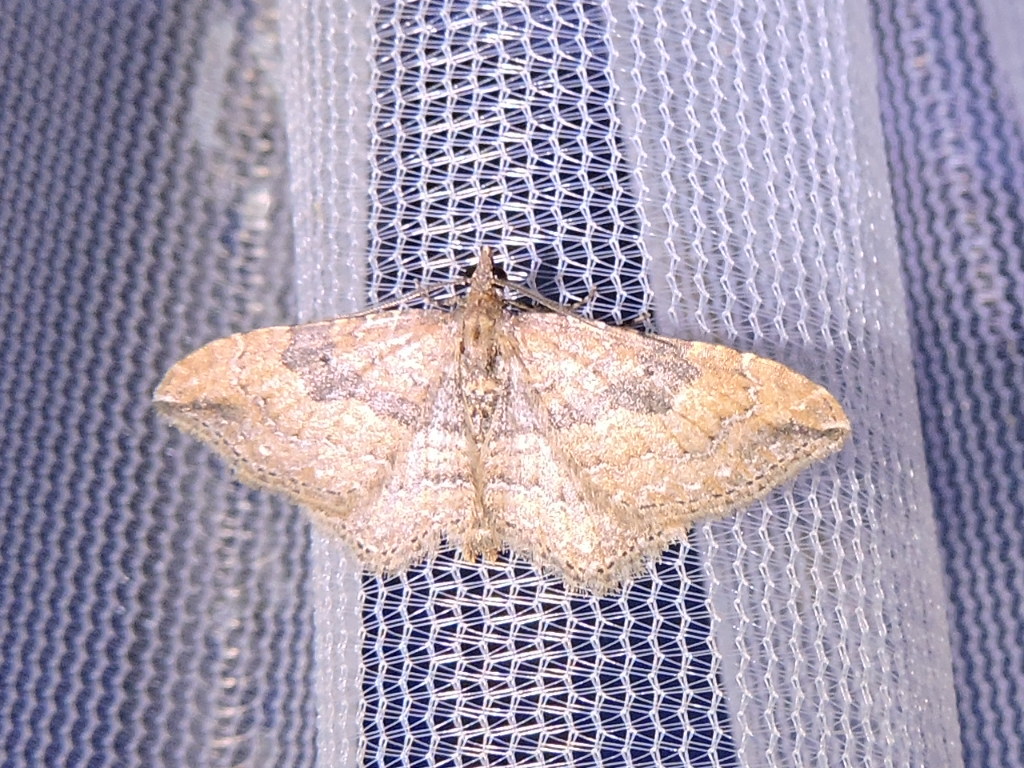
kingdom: Animalia
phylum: Arthropoda
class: Insecta
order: Lepidoptera
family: Geometridae
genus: Orthonama
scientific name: Orthonama obstipata
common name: The gem
